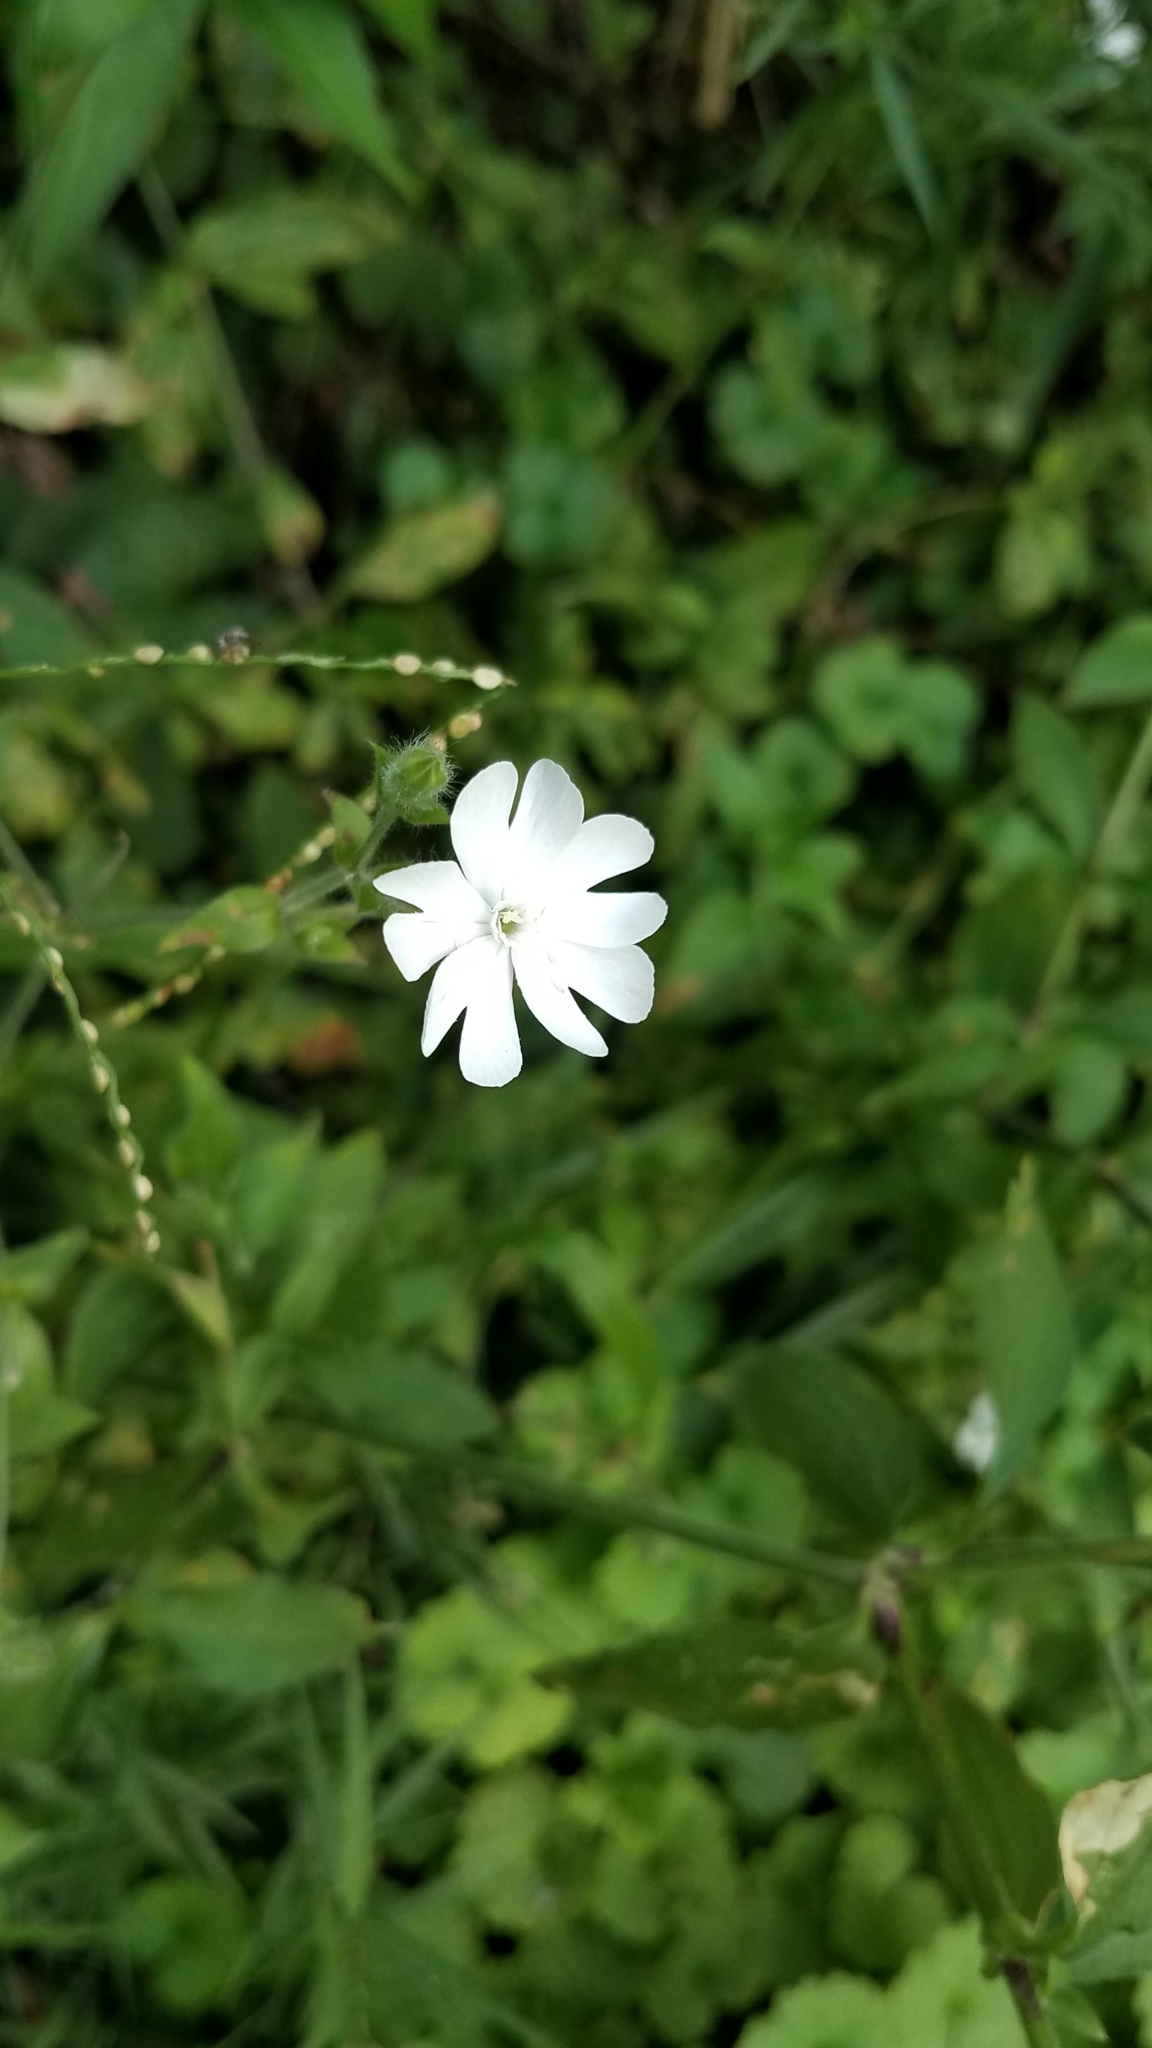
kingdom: Plantae
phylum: Tracheophyta
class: Magnoliopsida
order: Caryophyllales
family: Caryophyllaceae
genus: Silene
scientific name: Silene latifolia
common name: White campion
